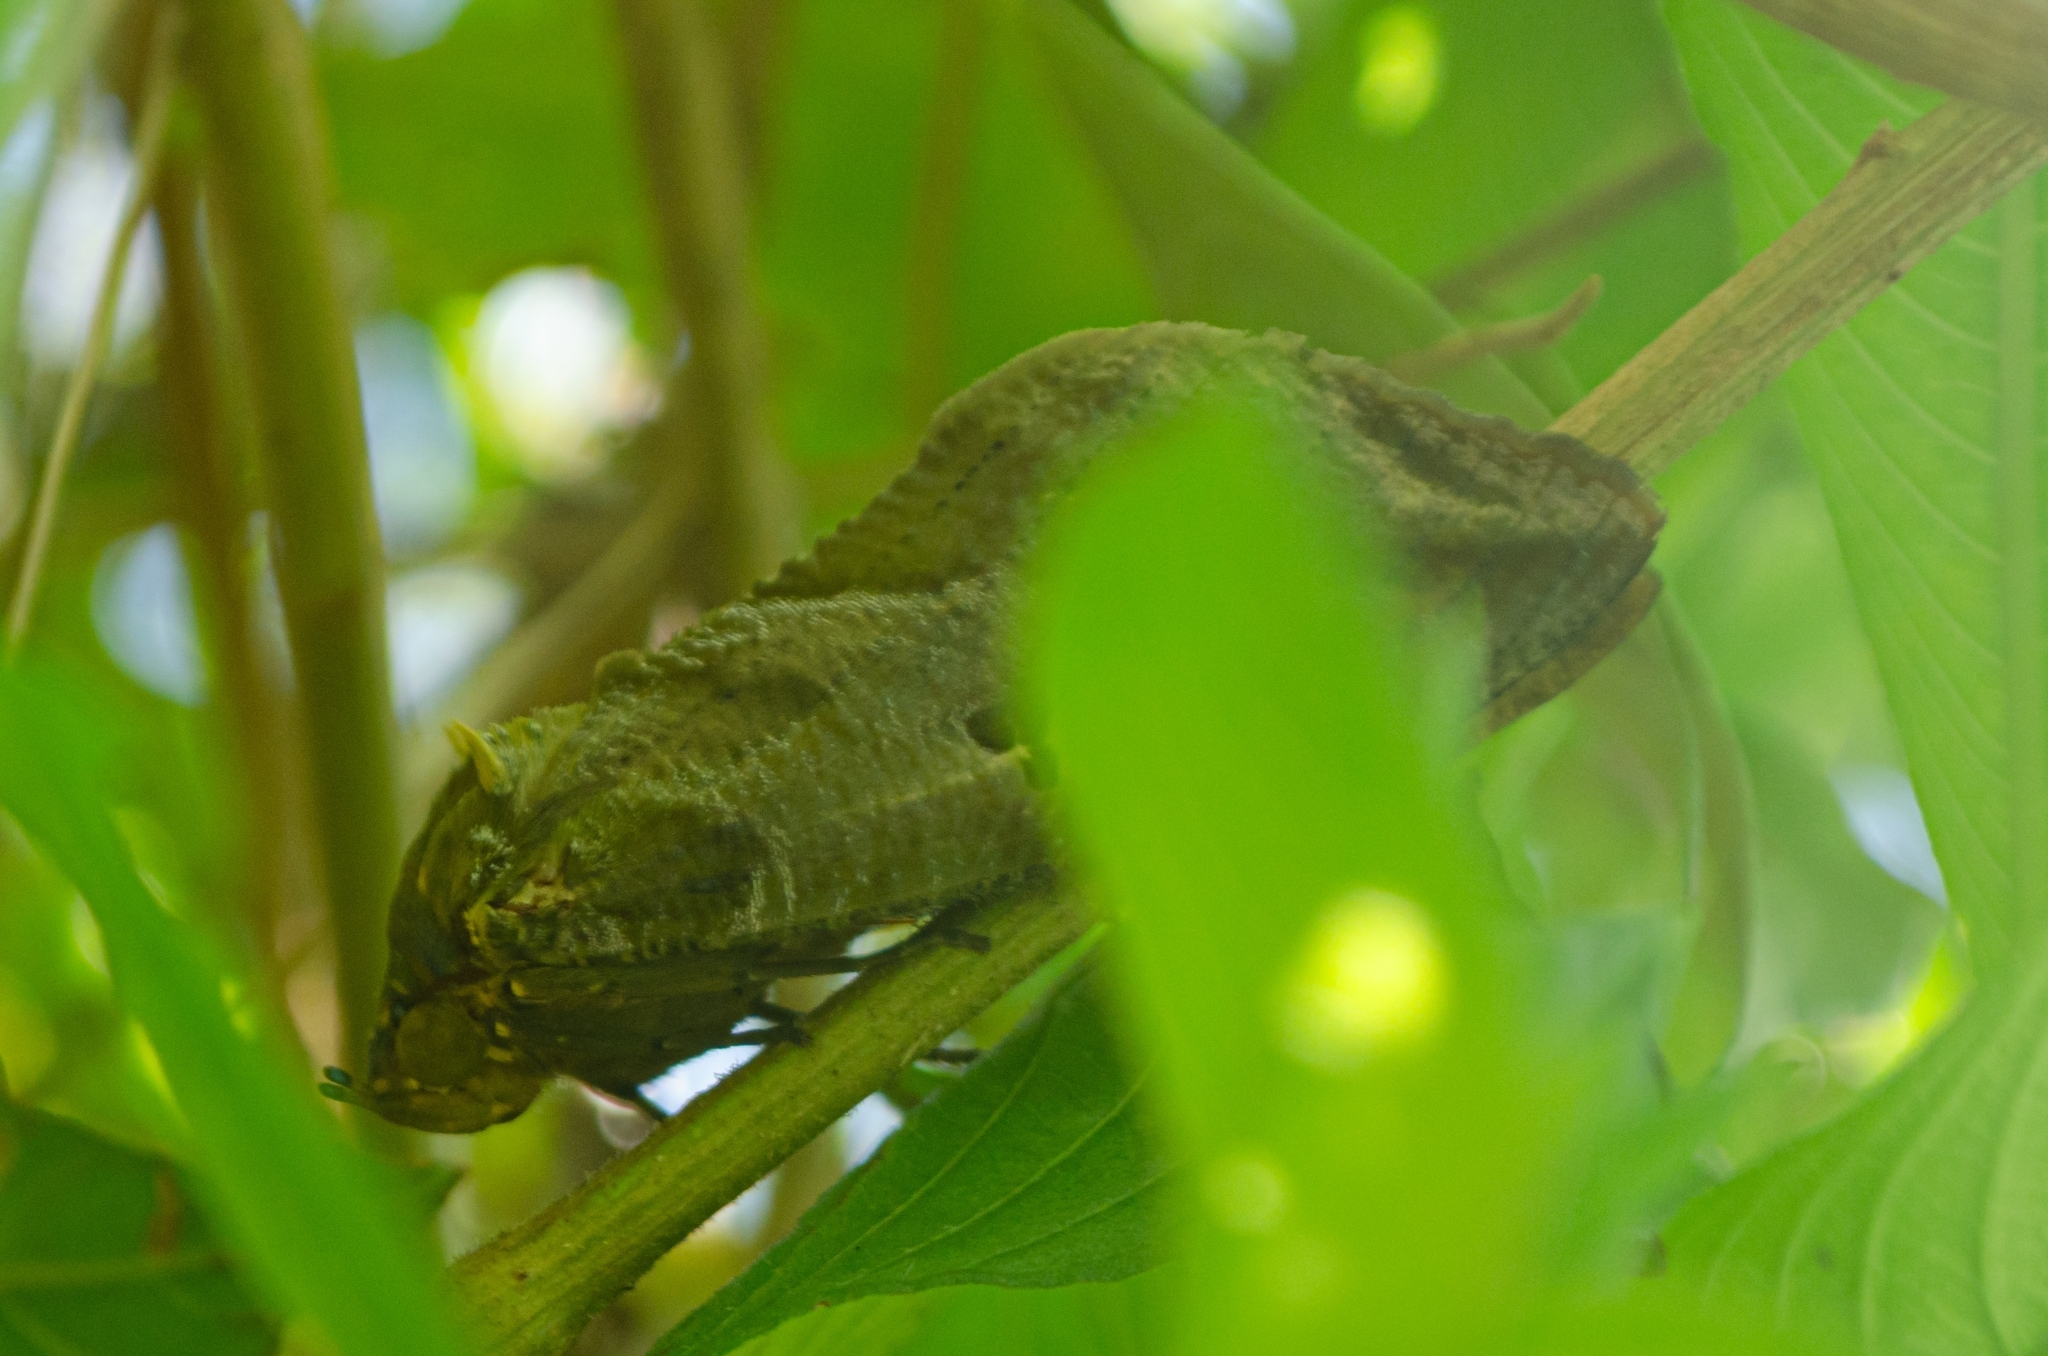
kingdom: Animalia
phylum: Arthropoda
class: Insecta
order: Lepidoptera
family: Erebidae
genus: Eudocima
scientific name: Eudocima apta
